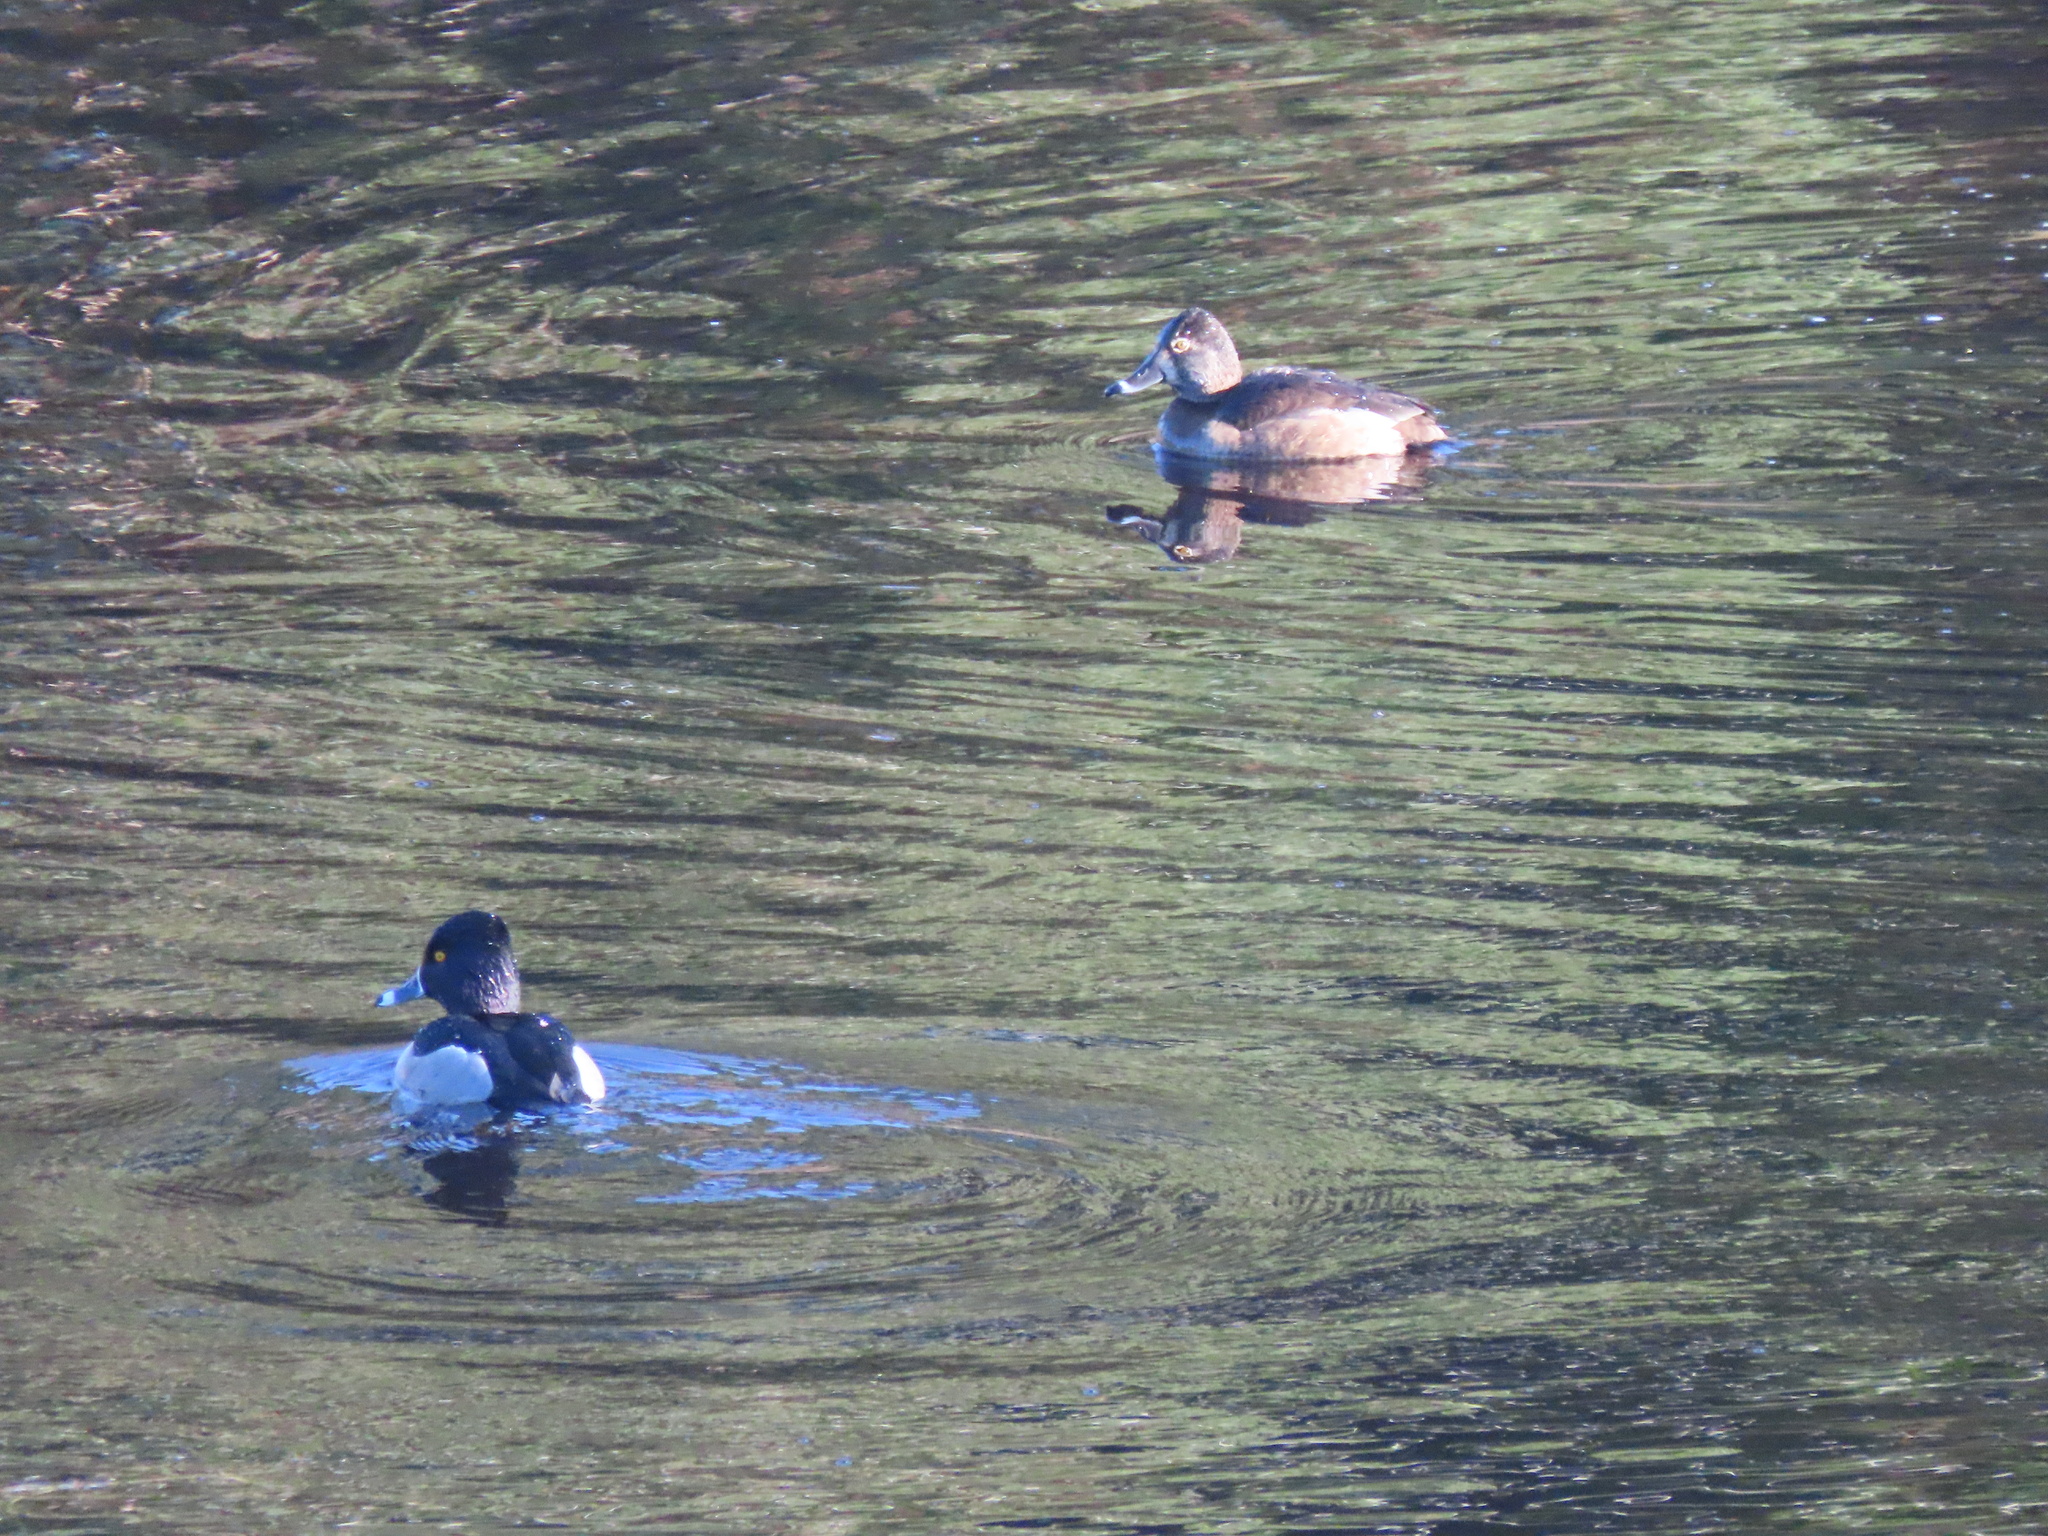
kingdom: Animalia
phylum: Chordata
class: Aves
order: Anseriformes
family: Anatidae
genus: Aythya
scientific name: Aythya collaris
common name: Ring-necked duck
